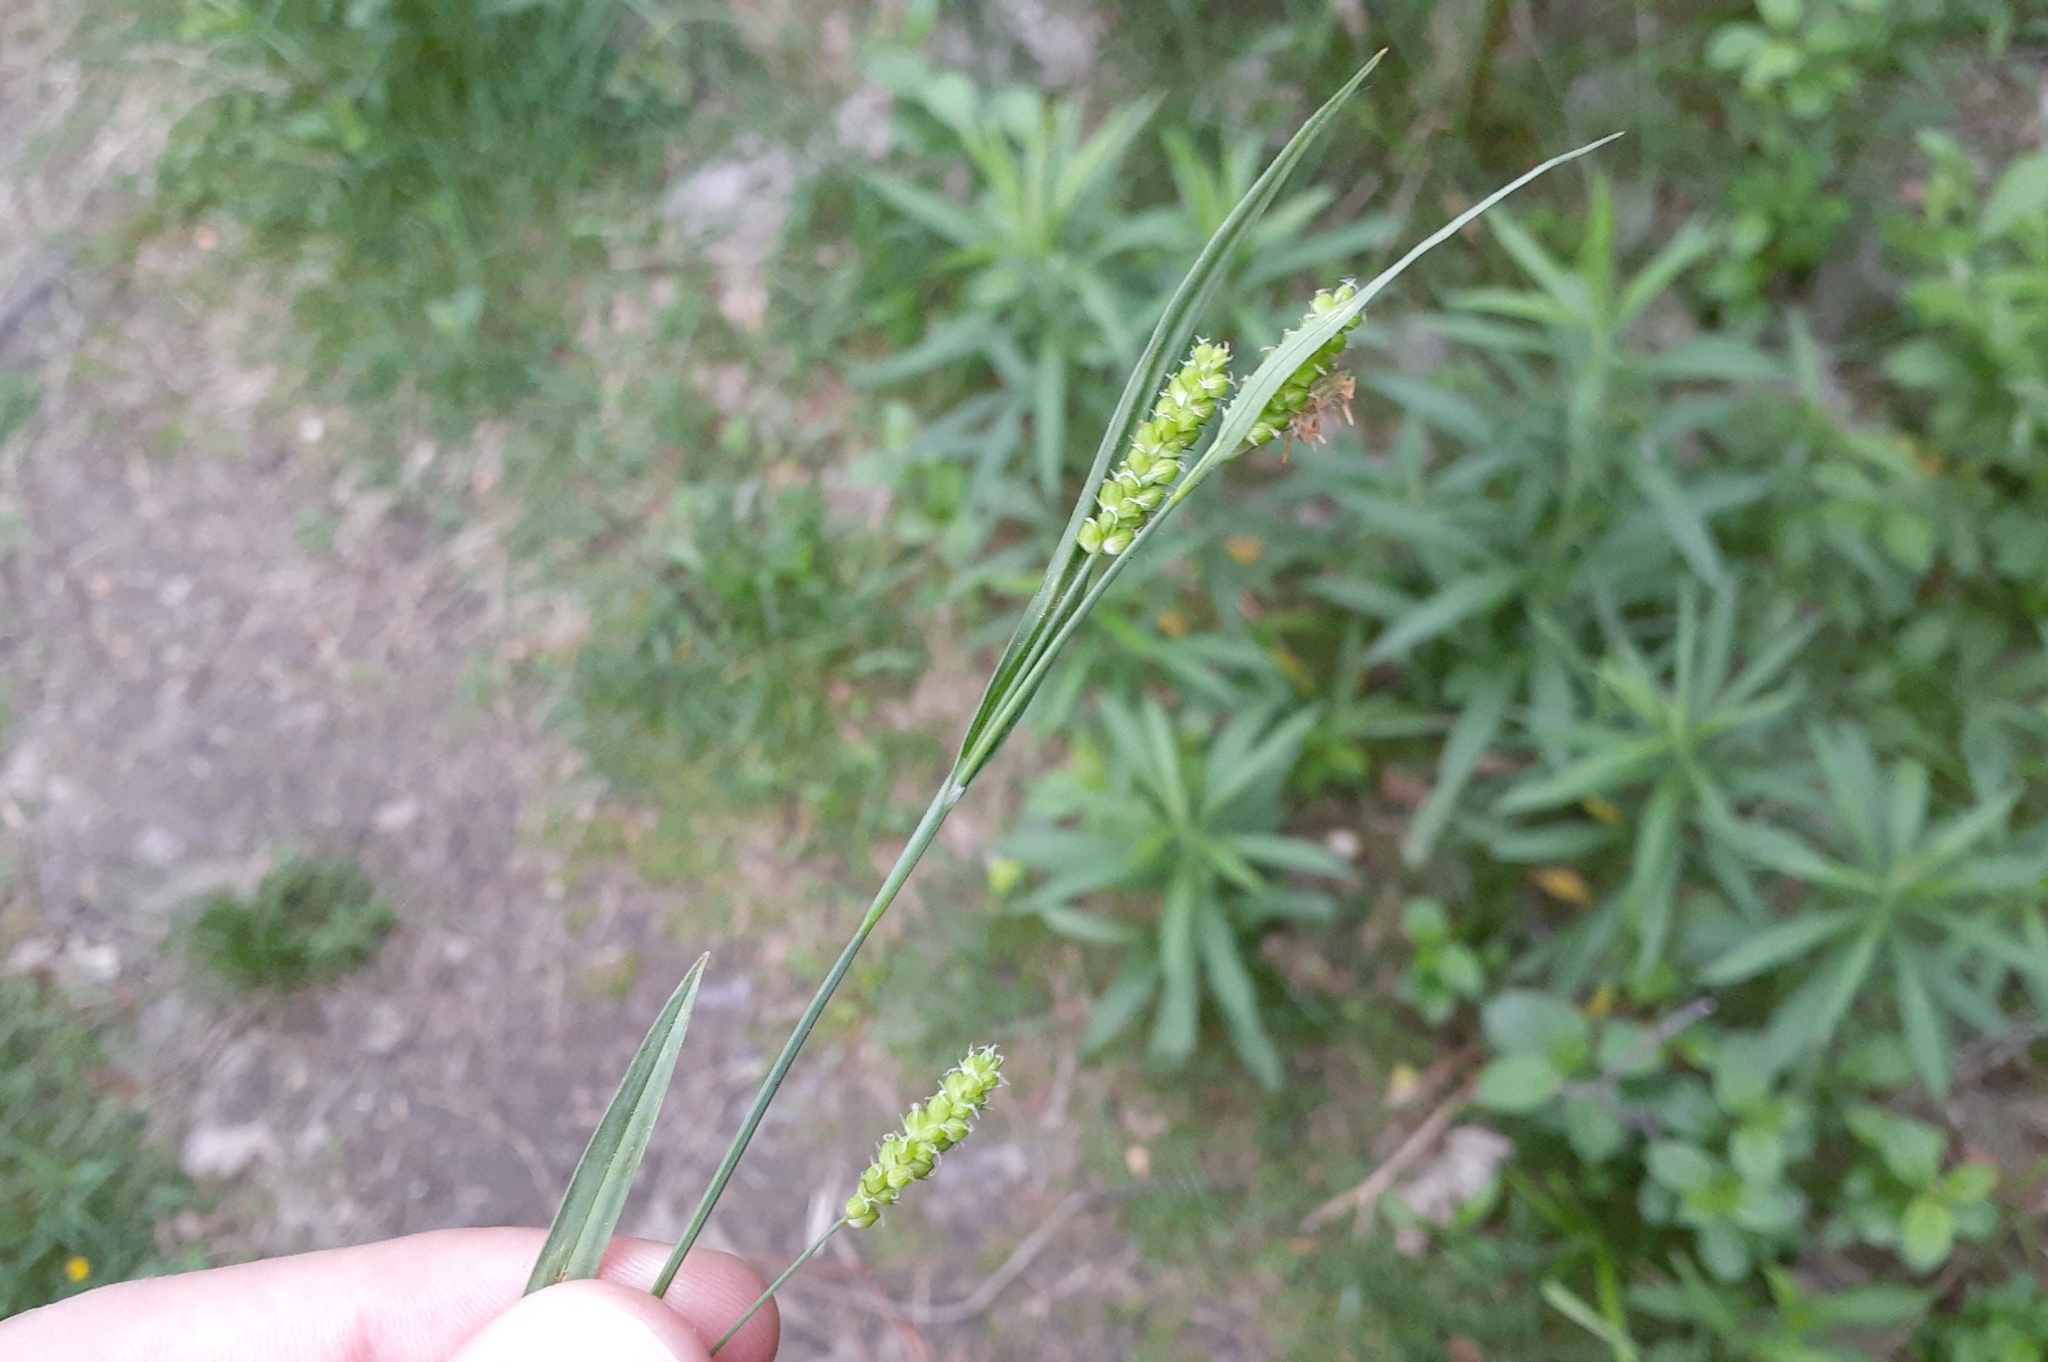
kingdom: Plantae
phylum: Tracheophyta
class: Liliopsida
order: Poales
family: Cyperaceae
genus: Carex
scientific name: Carex granularis
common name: Granular sedge
